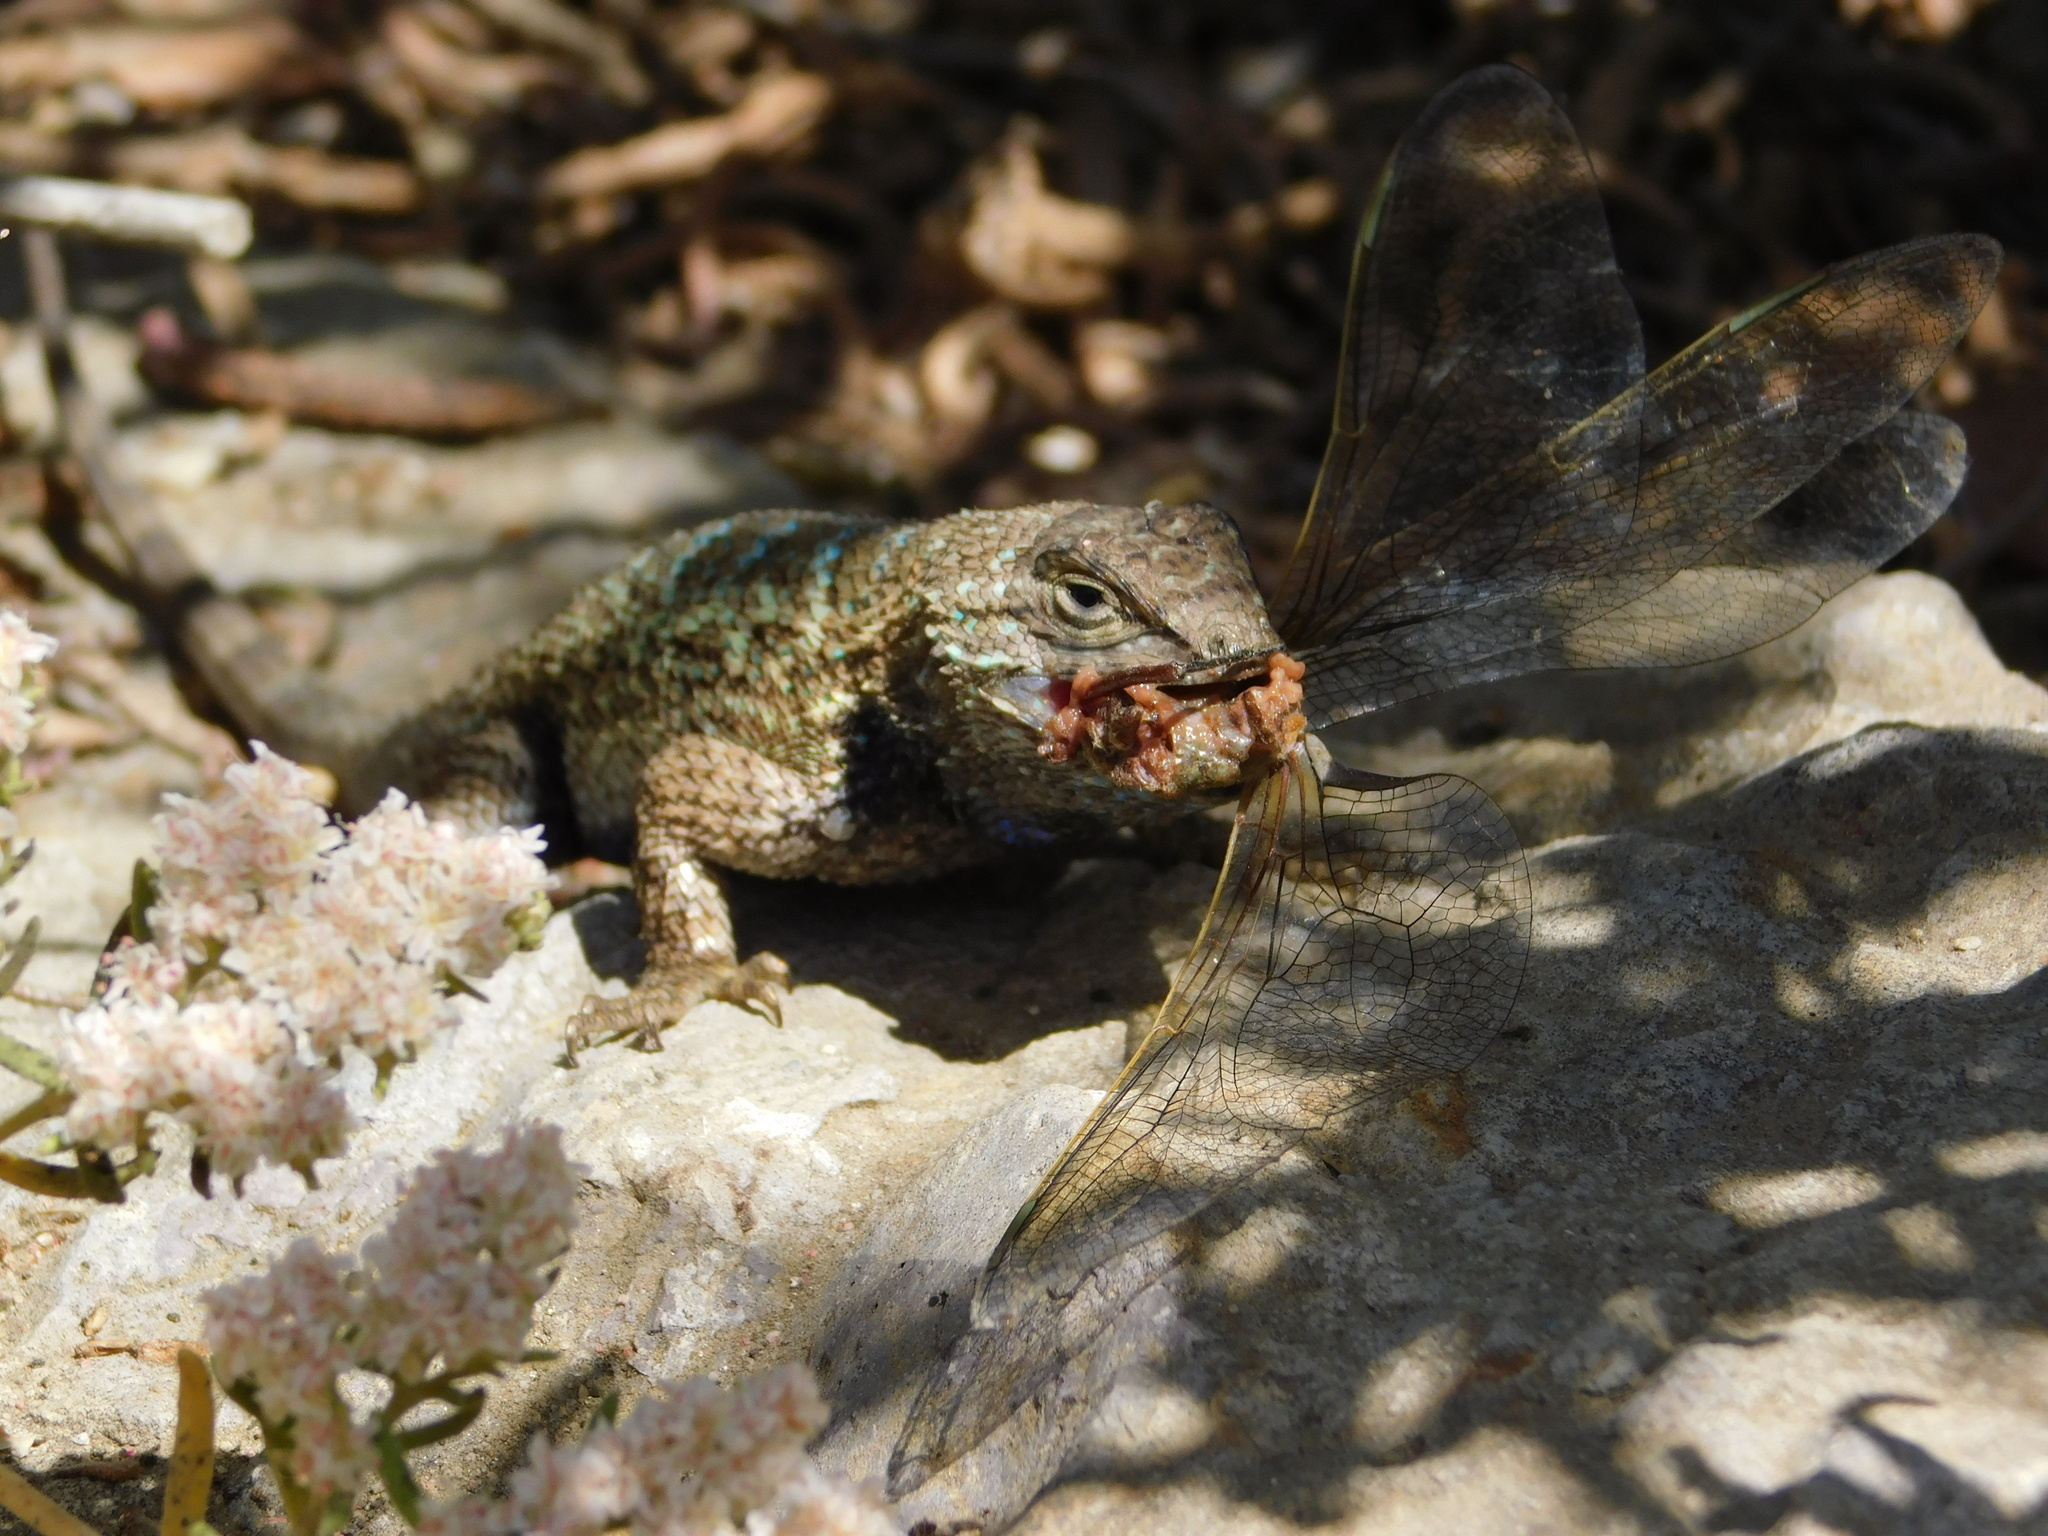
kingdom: Animalia
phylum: Chordata
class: Squamata
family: Phrynosomatidae
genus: Sceloporus
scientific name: Sceloporus occidentalis
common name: Western fence lizard
